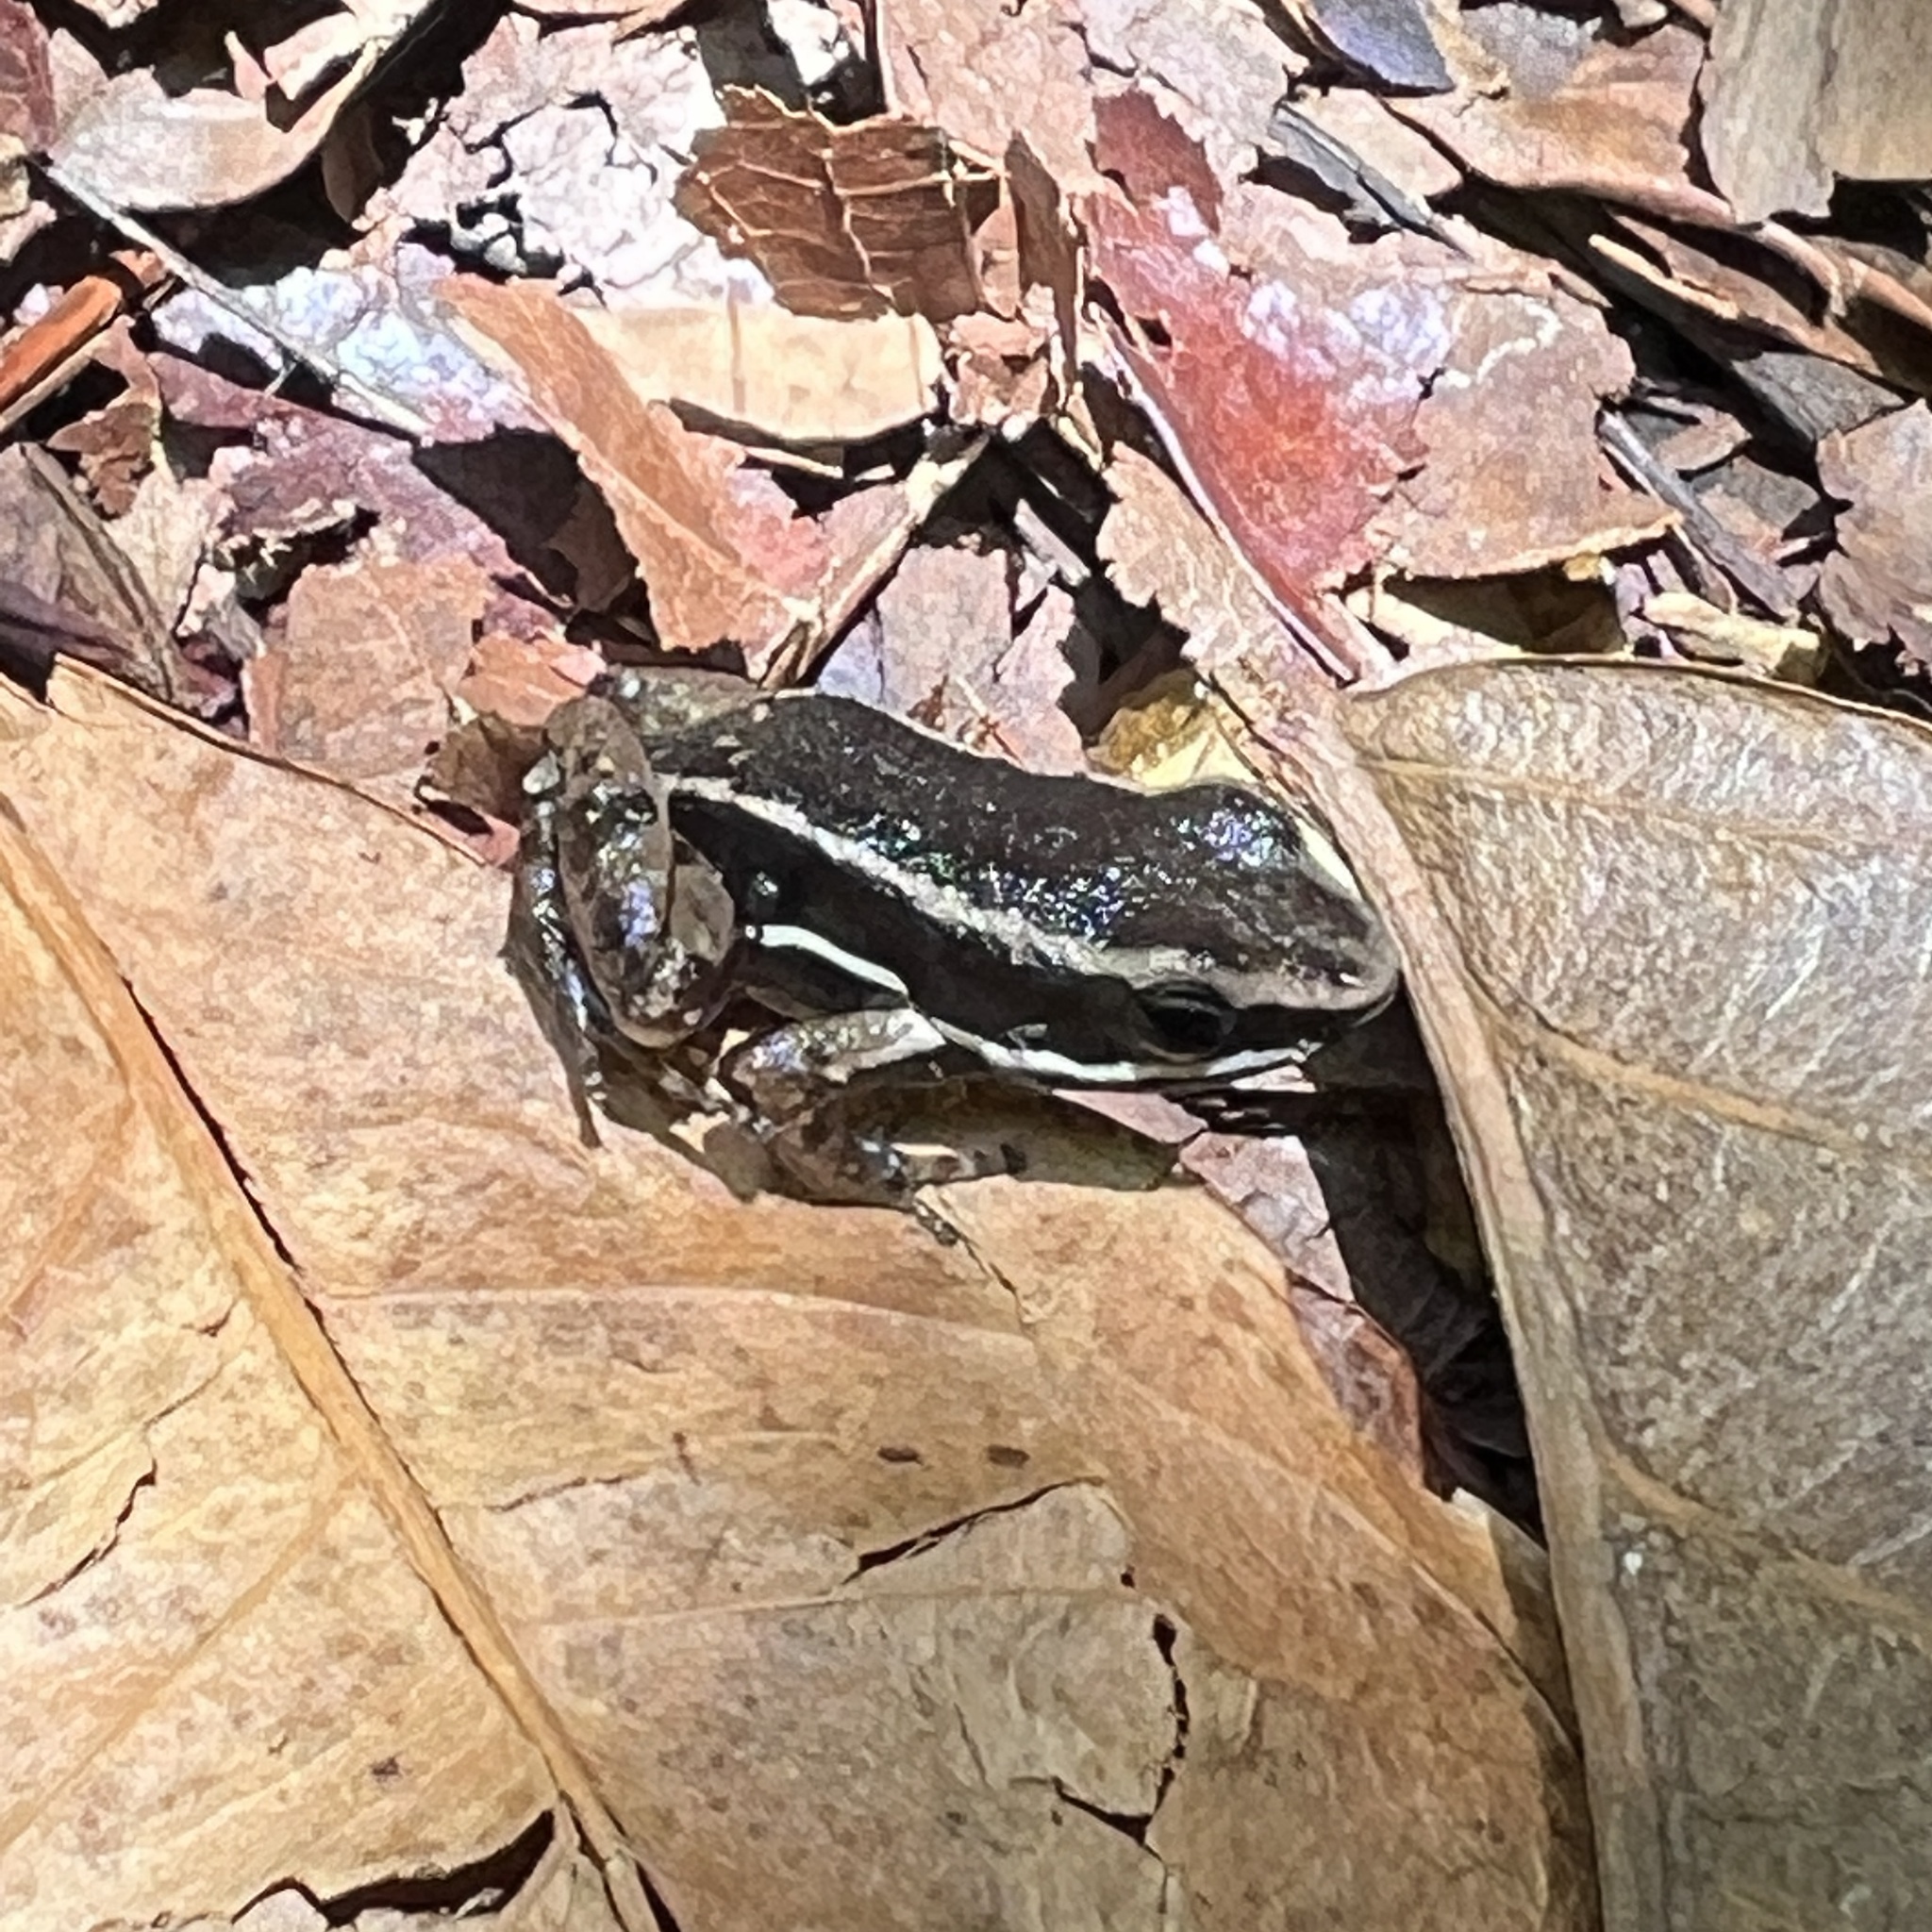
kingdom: Animalia
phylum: Chordata
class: Amphibia
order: Anura
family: Dendrobatidae
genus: Silverstoneia
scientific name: Silverstoneia flotator
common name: Rainforest rocket frog
